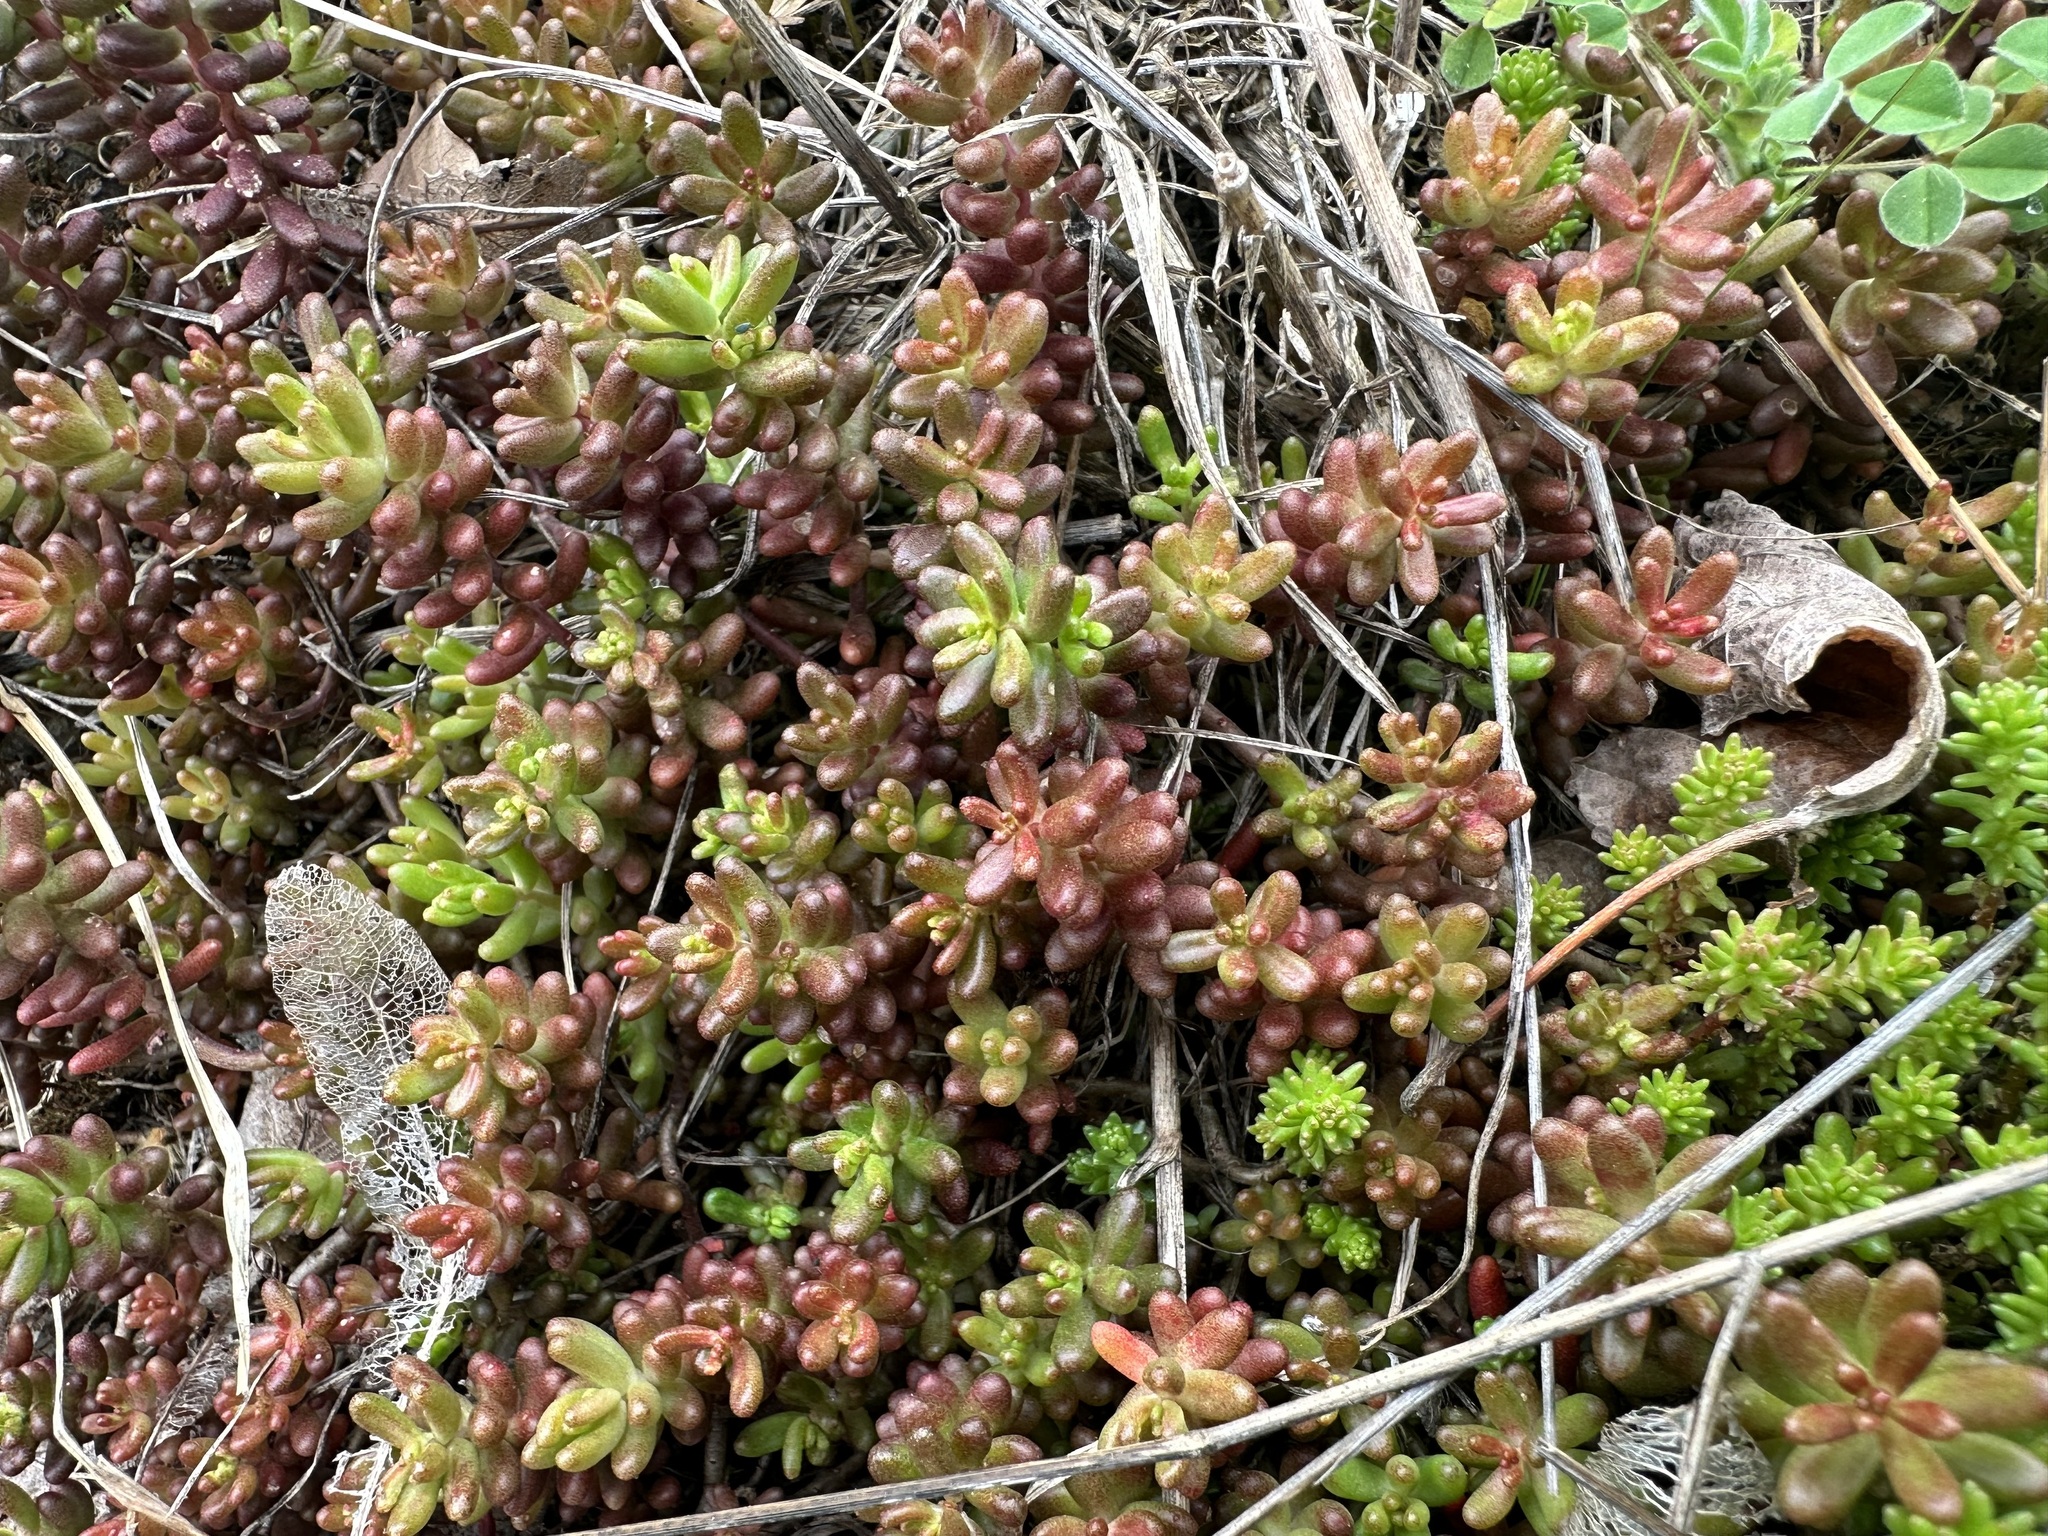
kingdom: Plantae
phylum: Tracheophyta
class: Magnoliopsida
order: Saxifragales
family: Crassulaceae
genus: Sedum
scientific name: Sedum album
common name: White stonecrop
